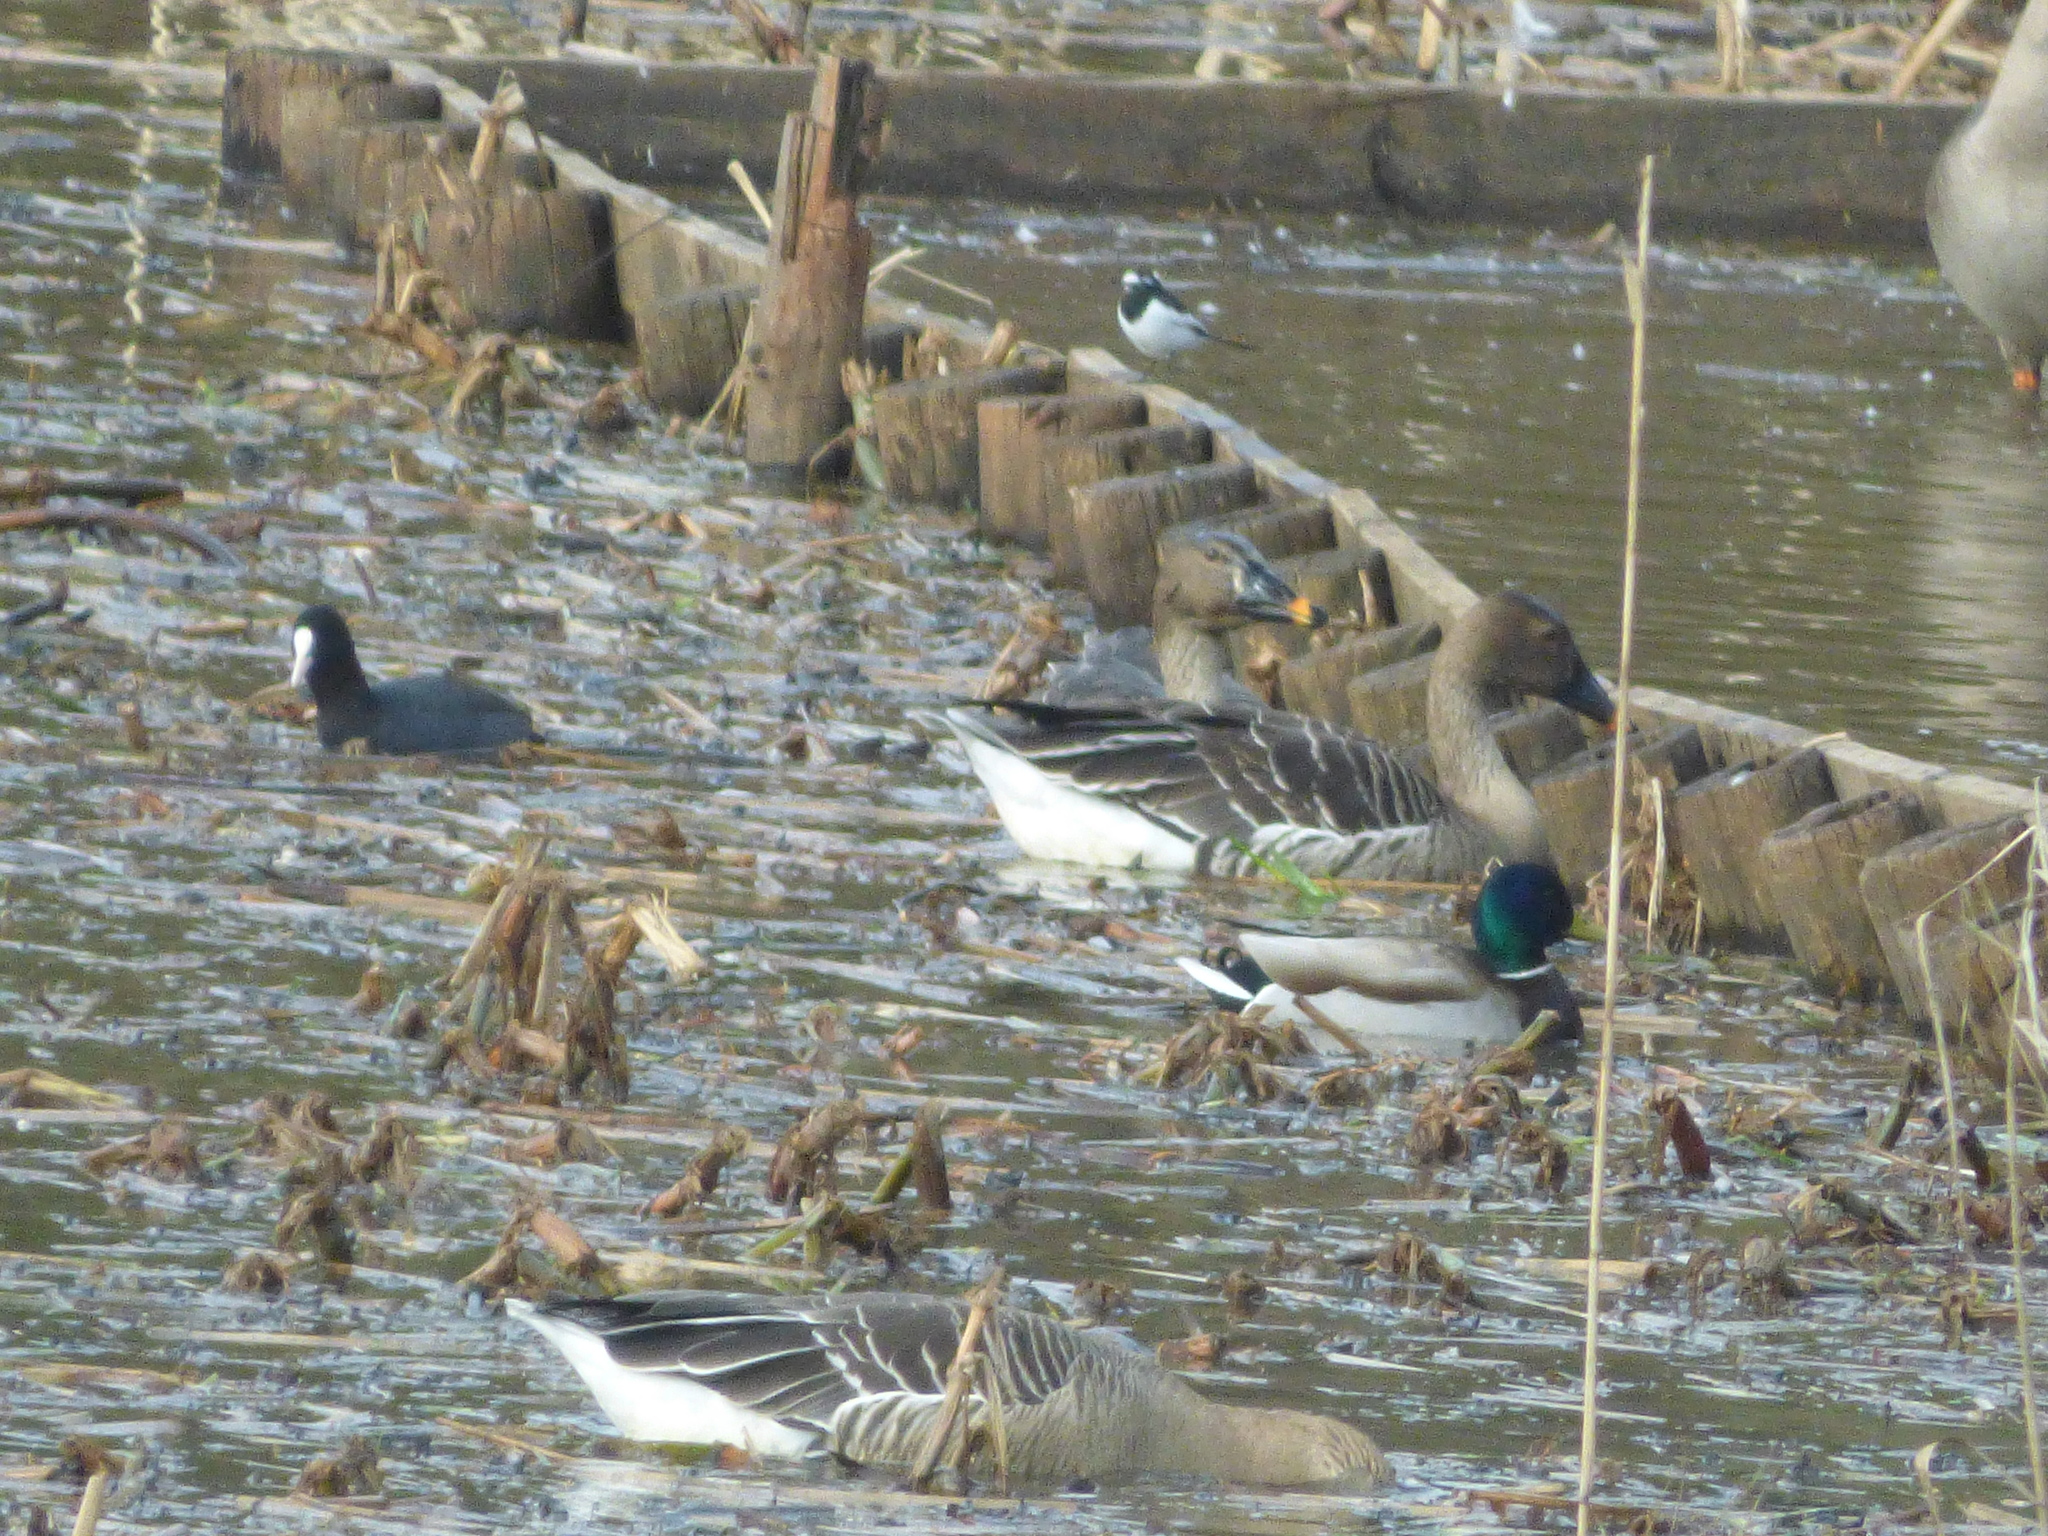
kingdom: Animalia
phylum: Chordata
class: Aves
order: Passeriformes
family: Motacillidae
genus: Motacilla
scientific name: Motacilla grandis
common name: Japanese wagtail
